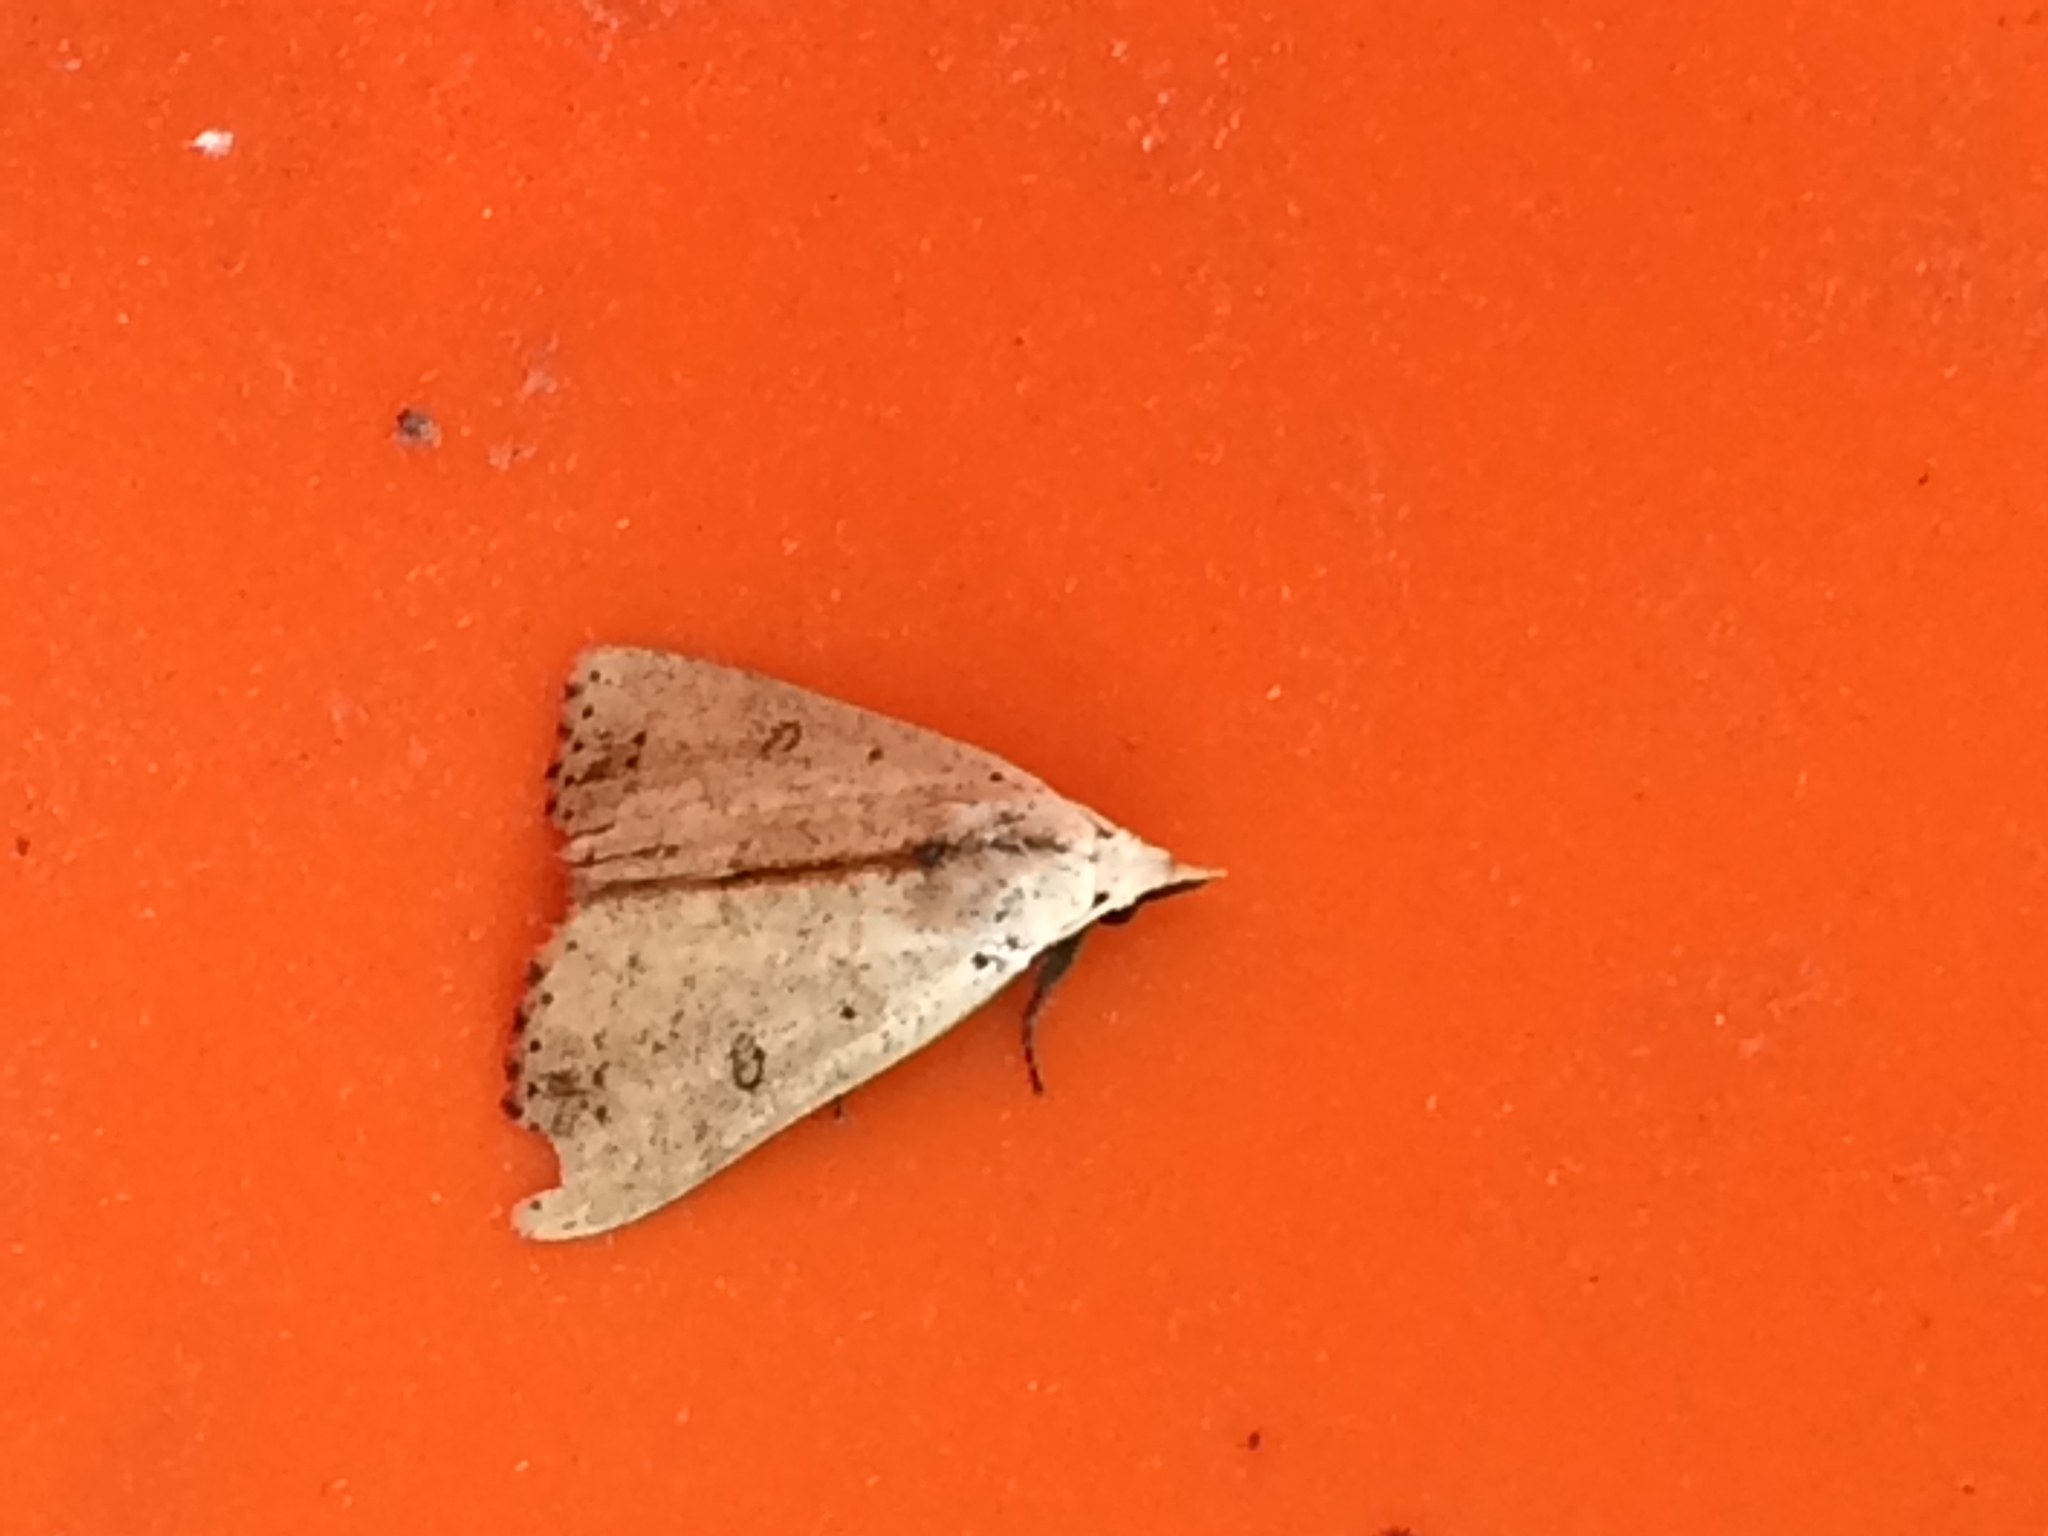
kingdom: Animalia
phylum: Arthropoda
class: Insecta
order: Lepidoptera
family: Erebidae
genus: Scolecocampa
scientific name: Scolecocampa liburna
